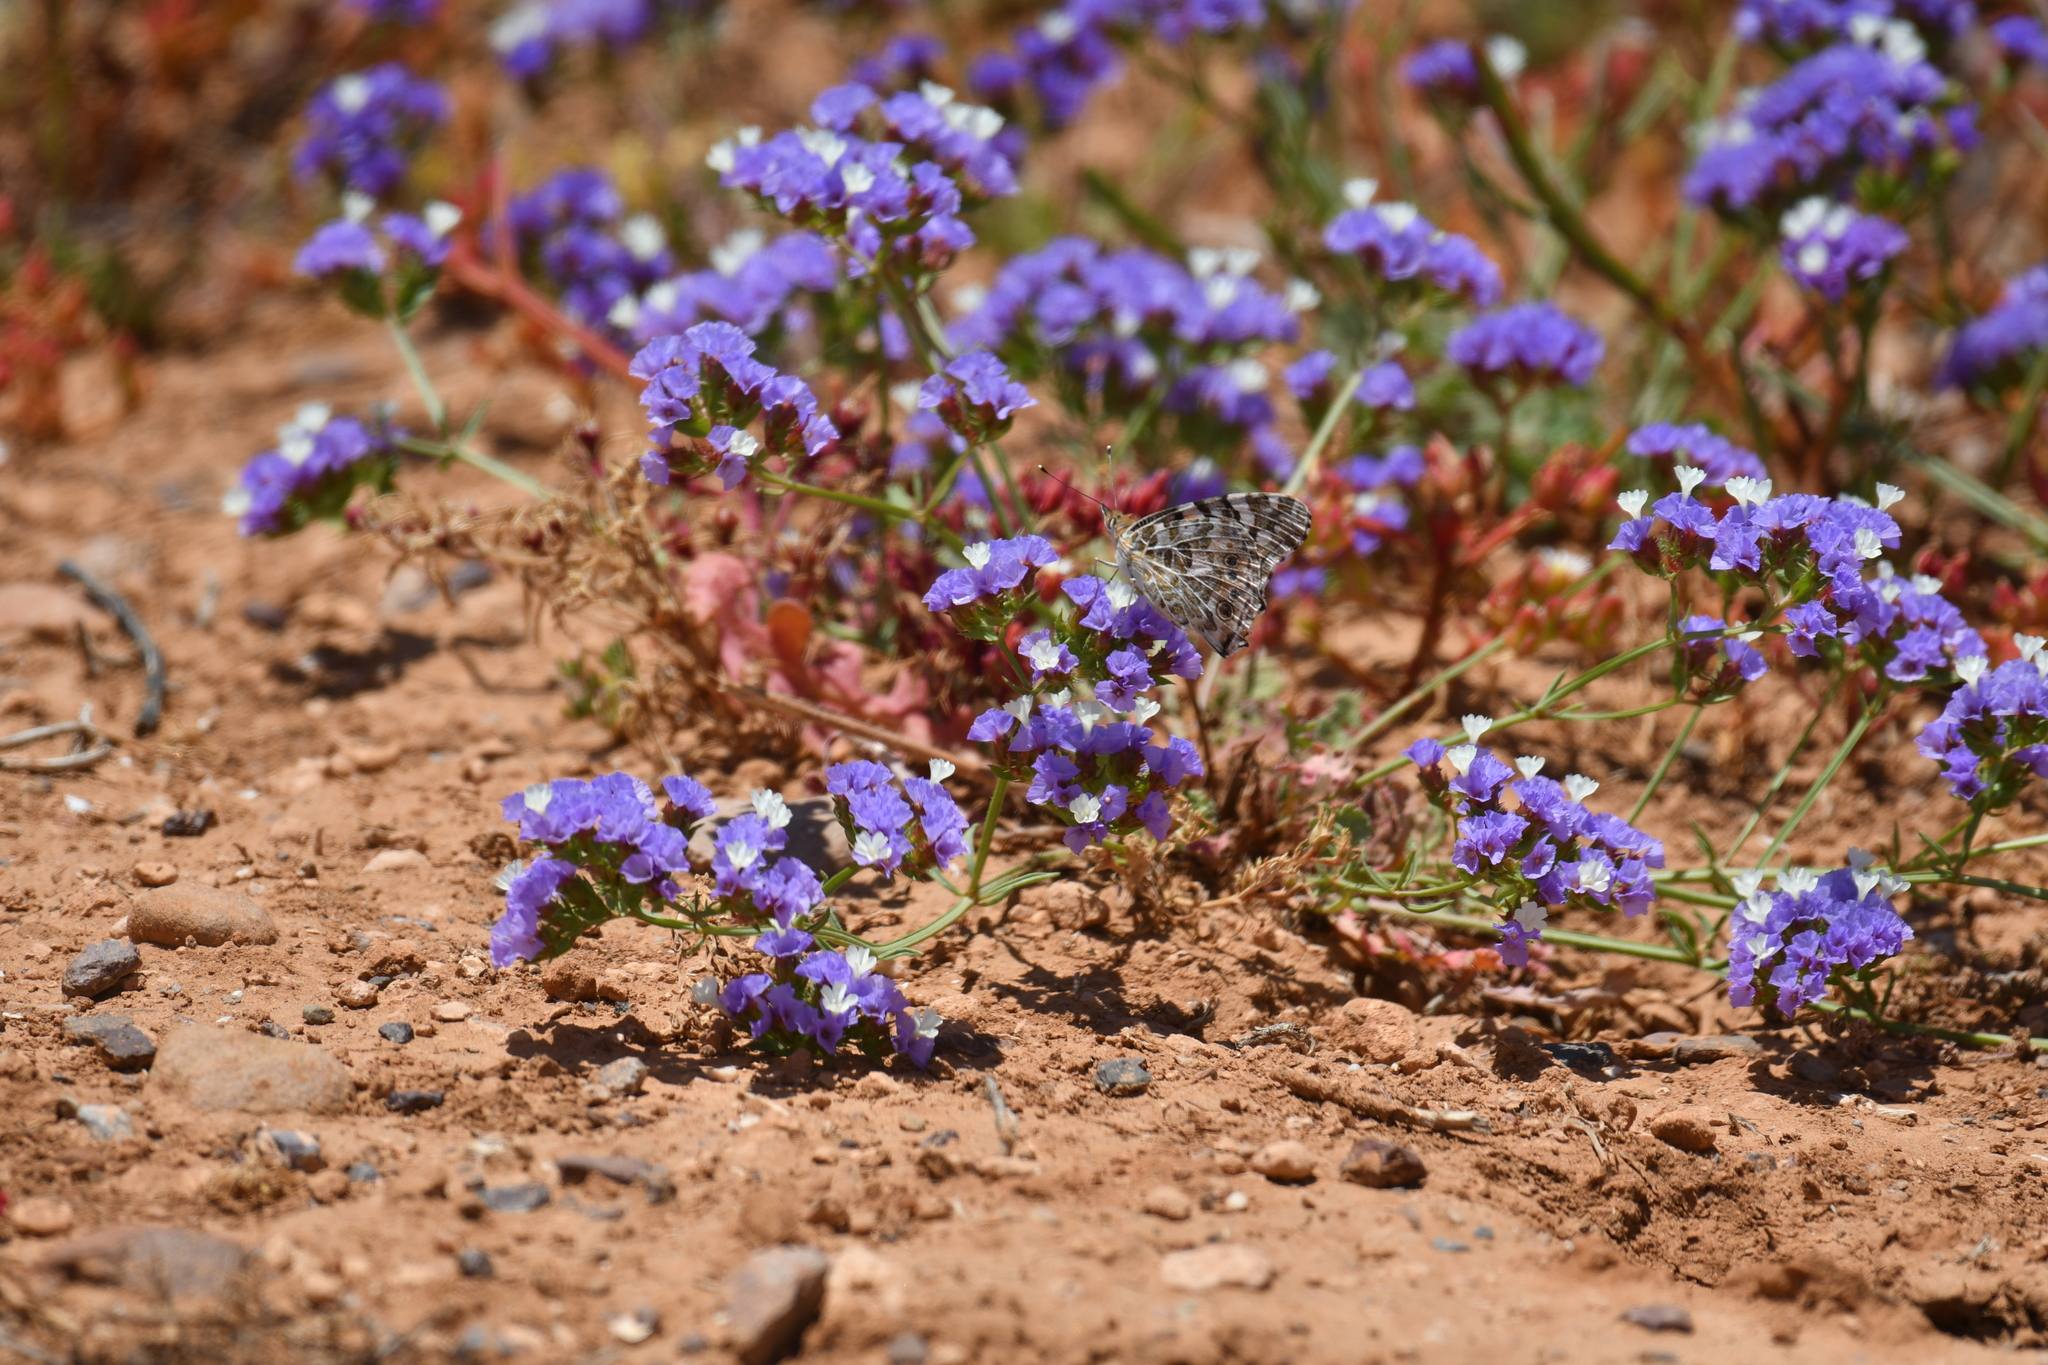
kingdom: Animalia
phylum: Arthropoda
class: Insecta
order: Lepidoptera
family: Nymphalidae
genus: Vanessa
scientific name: Vanessa cardui
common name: Painted lady
